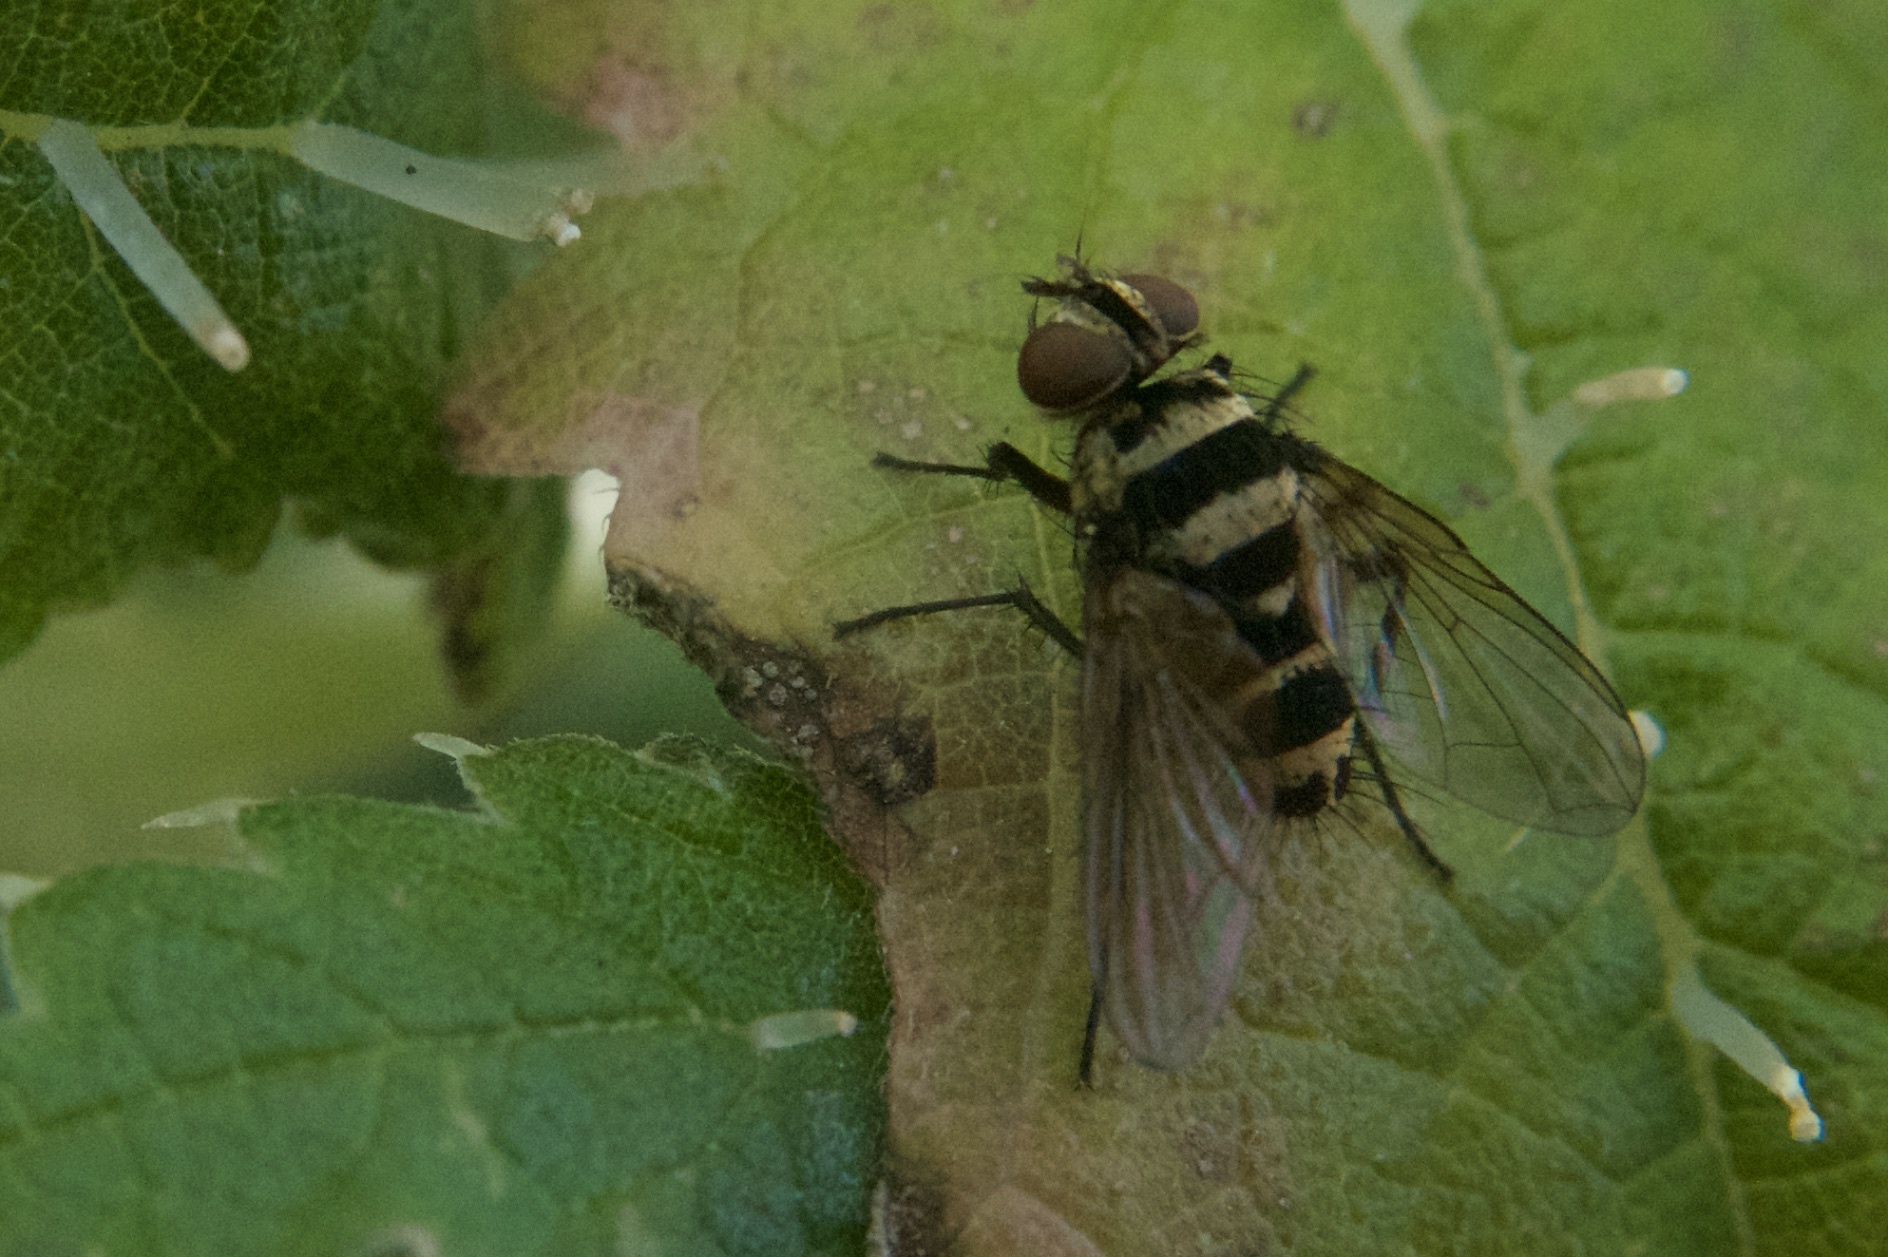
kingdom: Animalia
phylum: Arthropoda
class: Insecta
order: Diptera
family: Tachinidae
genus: Trigonospila
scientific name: Trigonospila brevifacies
